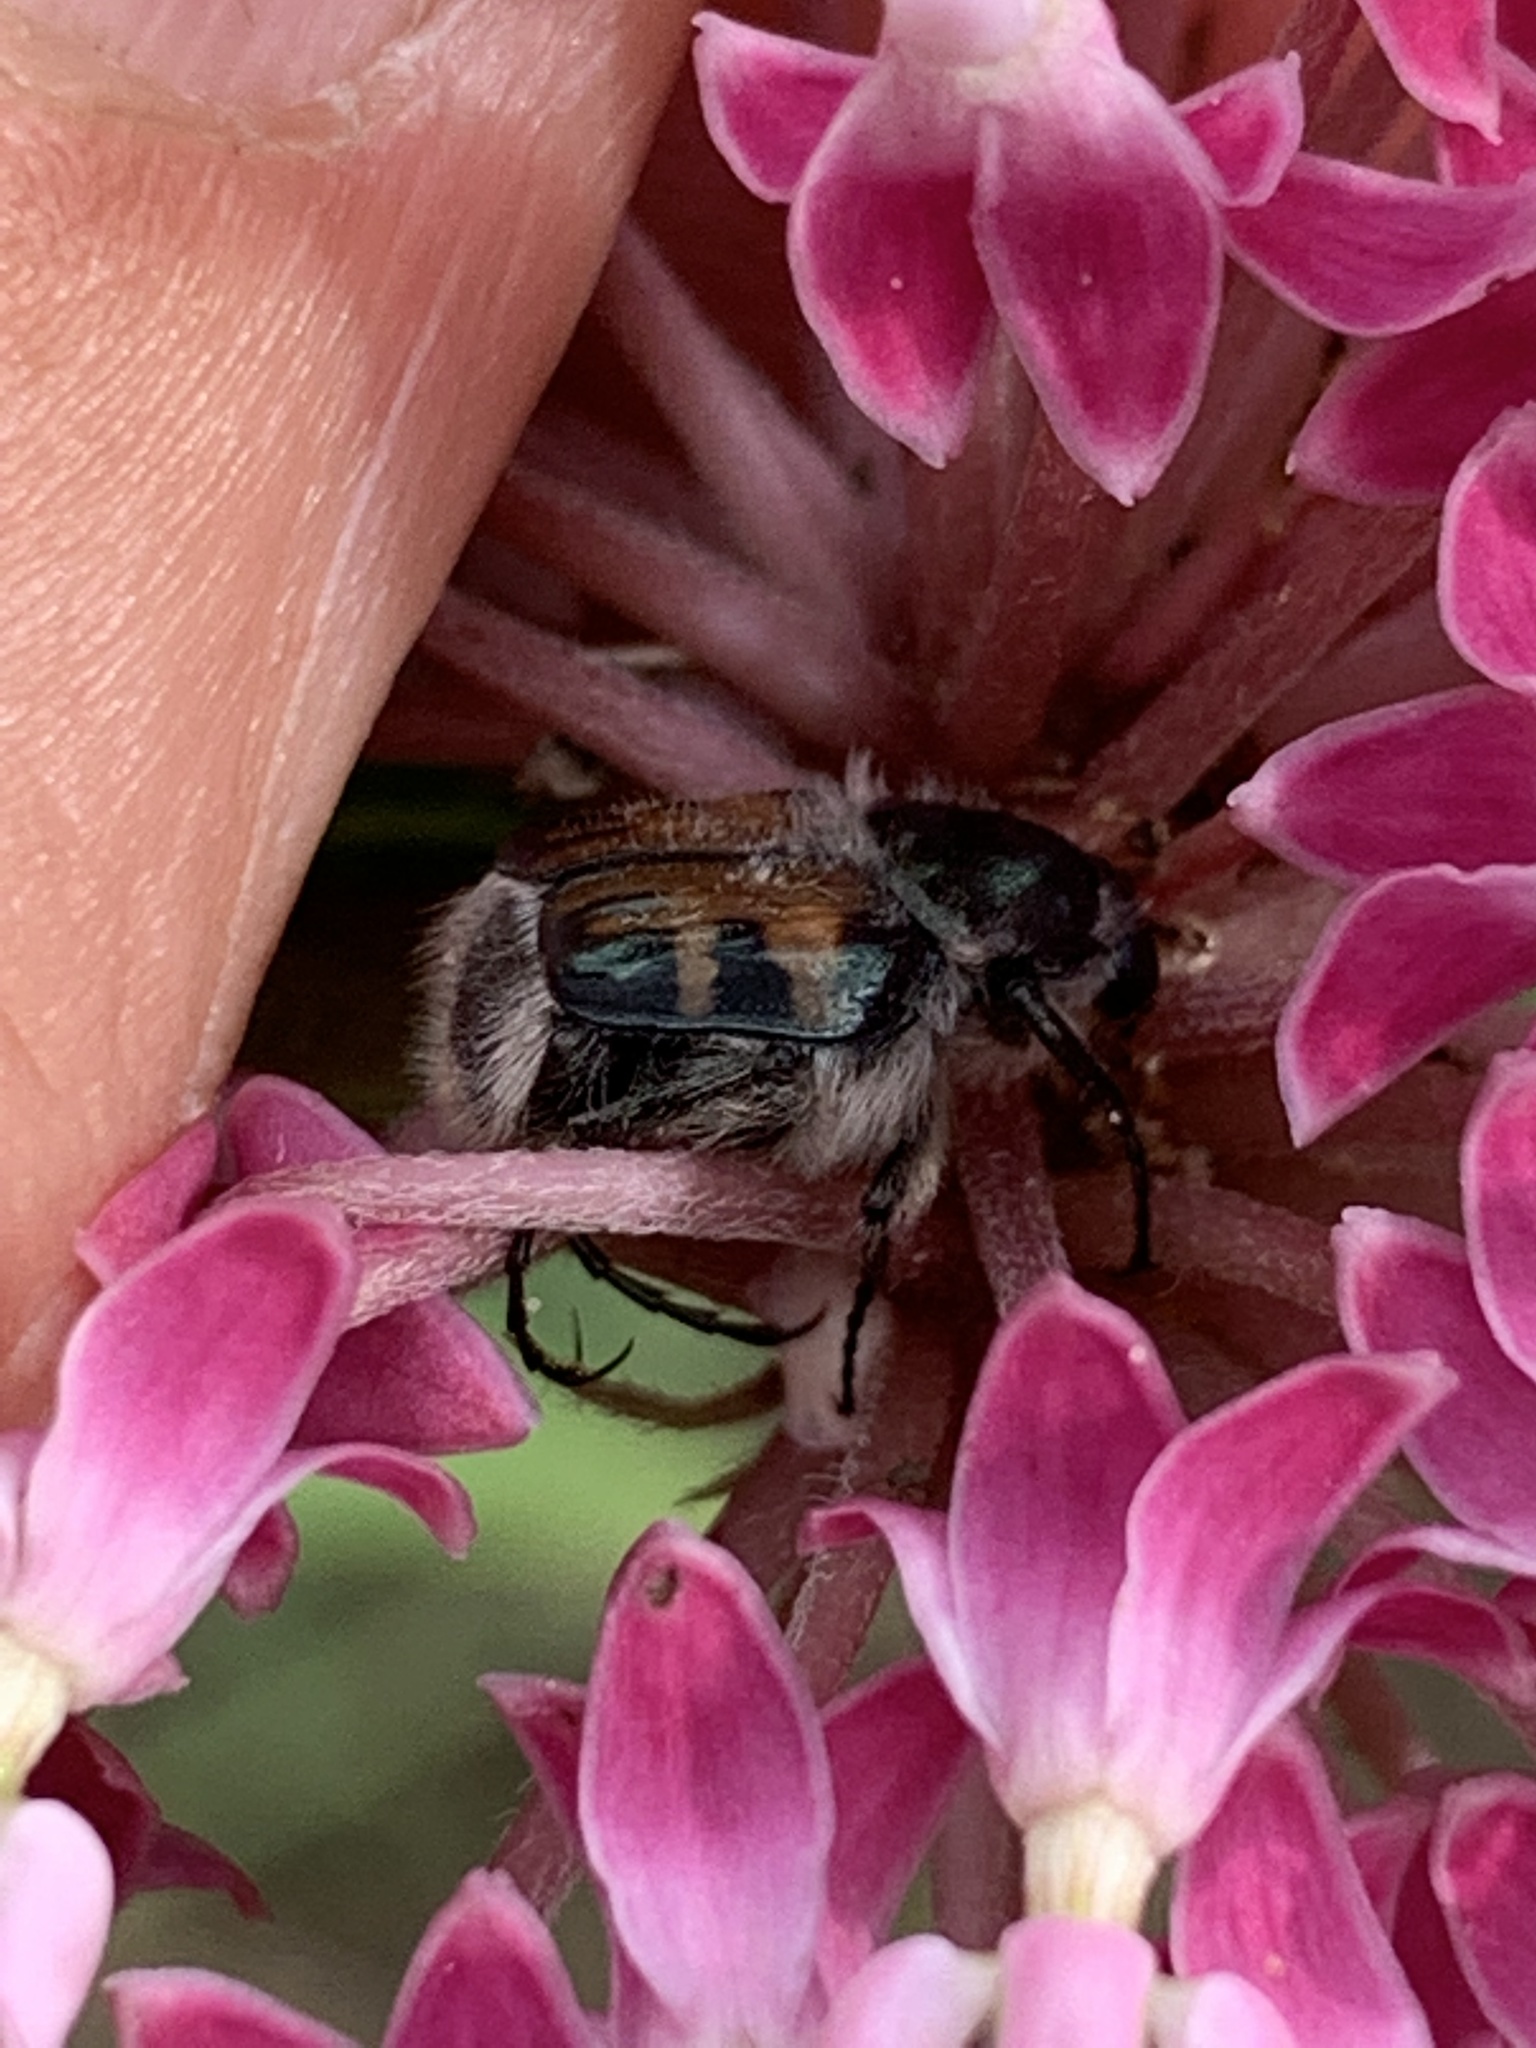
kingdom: Animalia
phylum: Arthropoda
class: Insecta
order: Coleoptera
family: Scarabaeidae
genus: Trichiotinus
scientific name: Trichiotinus affinis
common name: Hairy flower scarab
